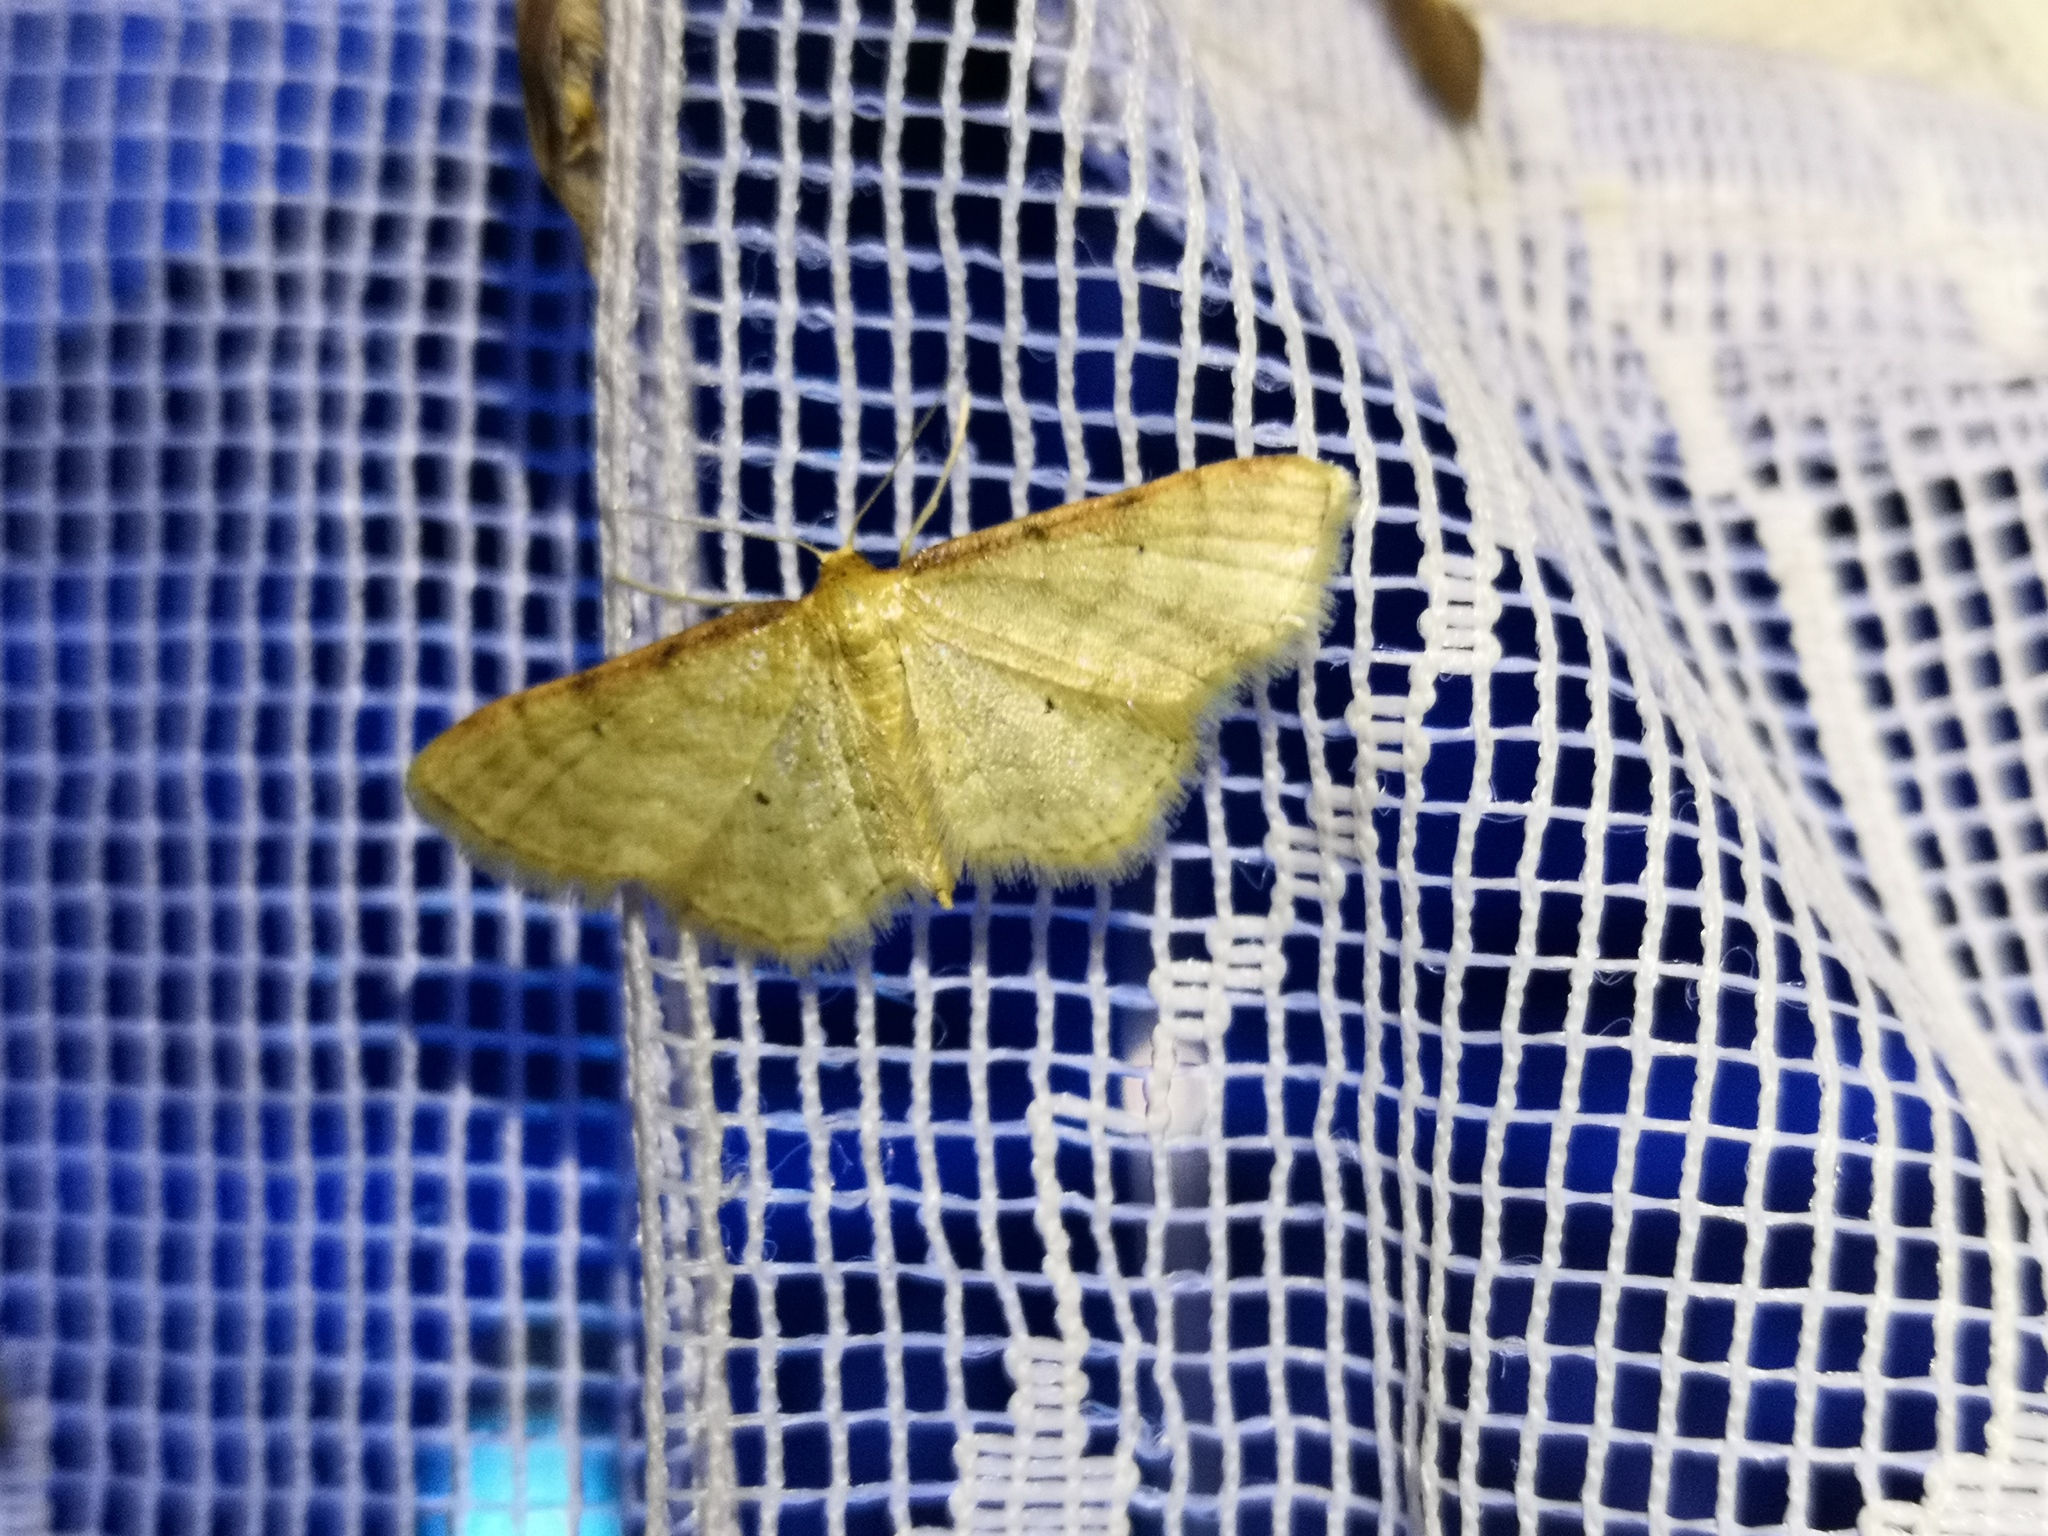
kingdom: Animalia
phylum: Arthropoda
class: Insecta
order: Lepidoptera
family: Geometridae
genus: Idaea
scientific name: Idaea humiliata
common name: Isle of wight wave
